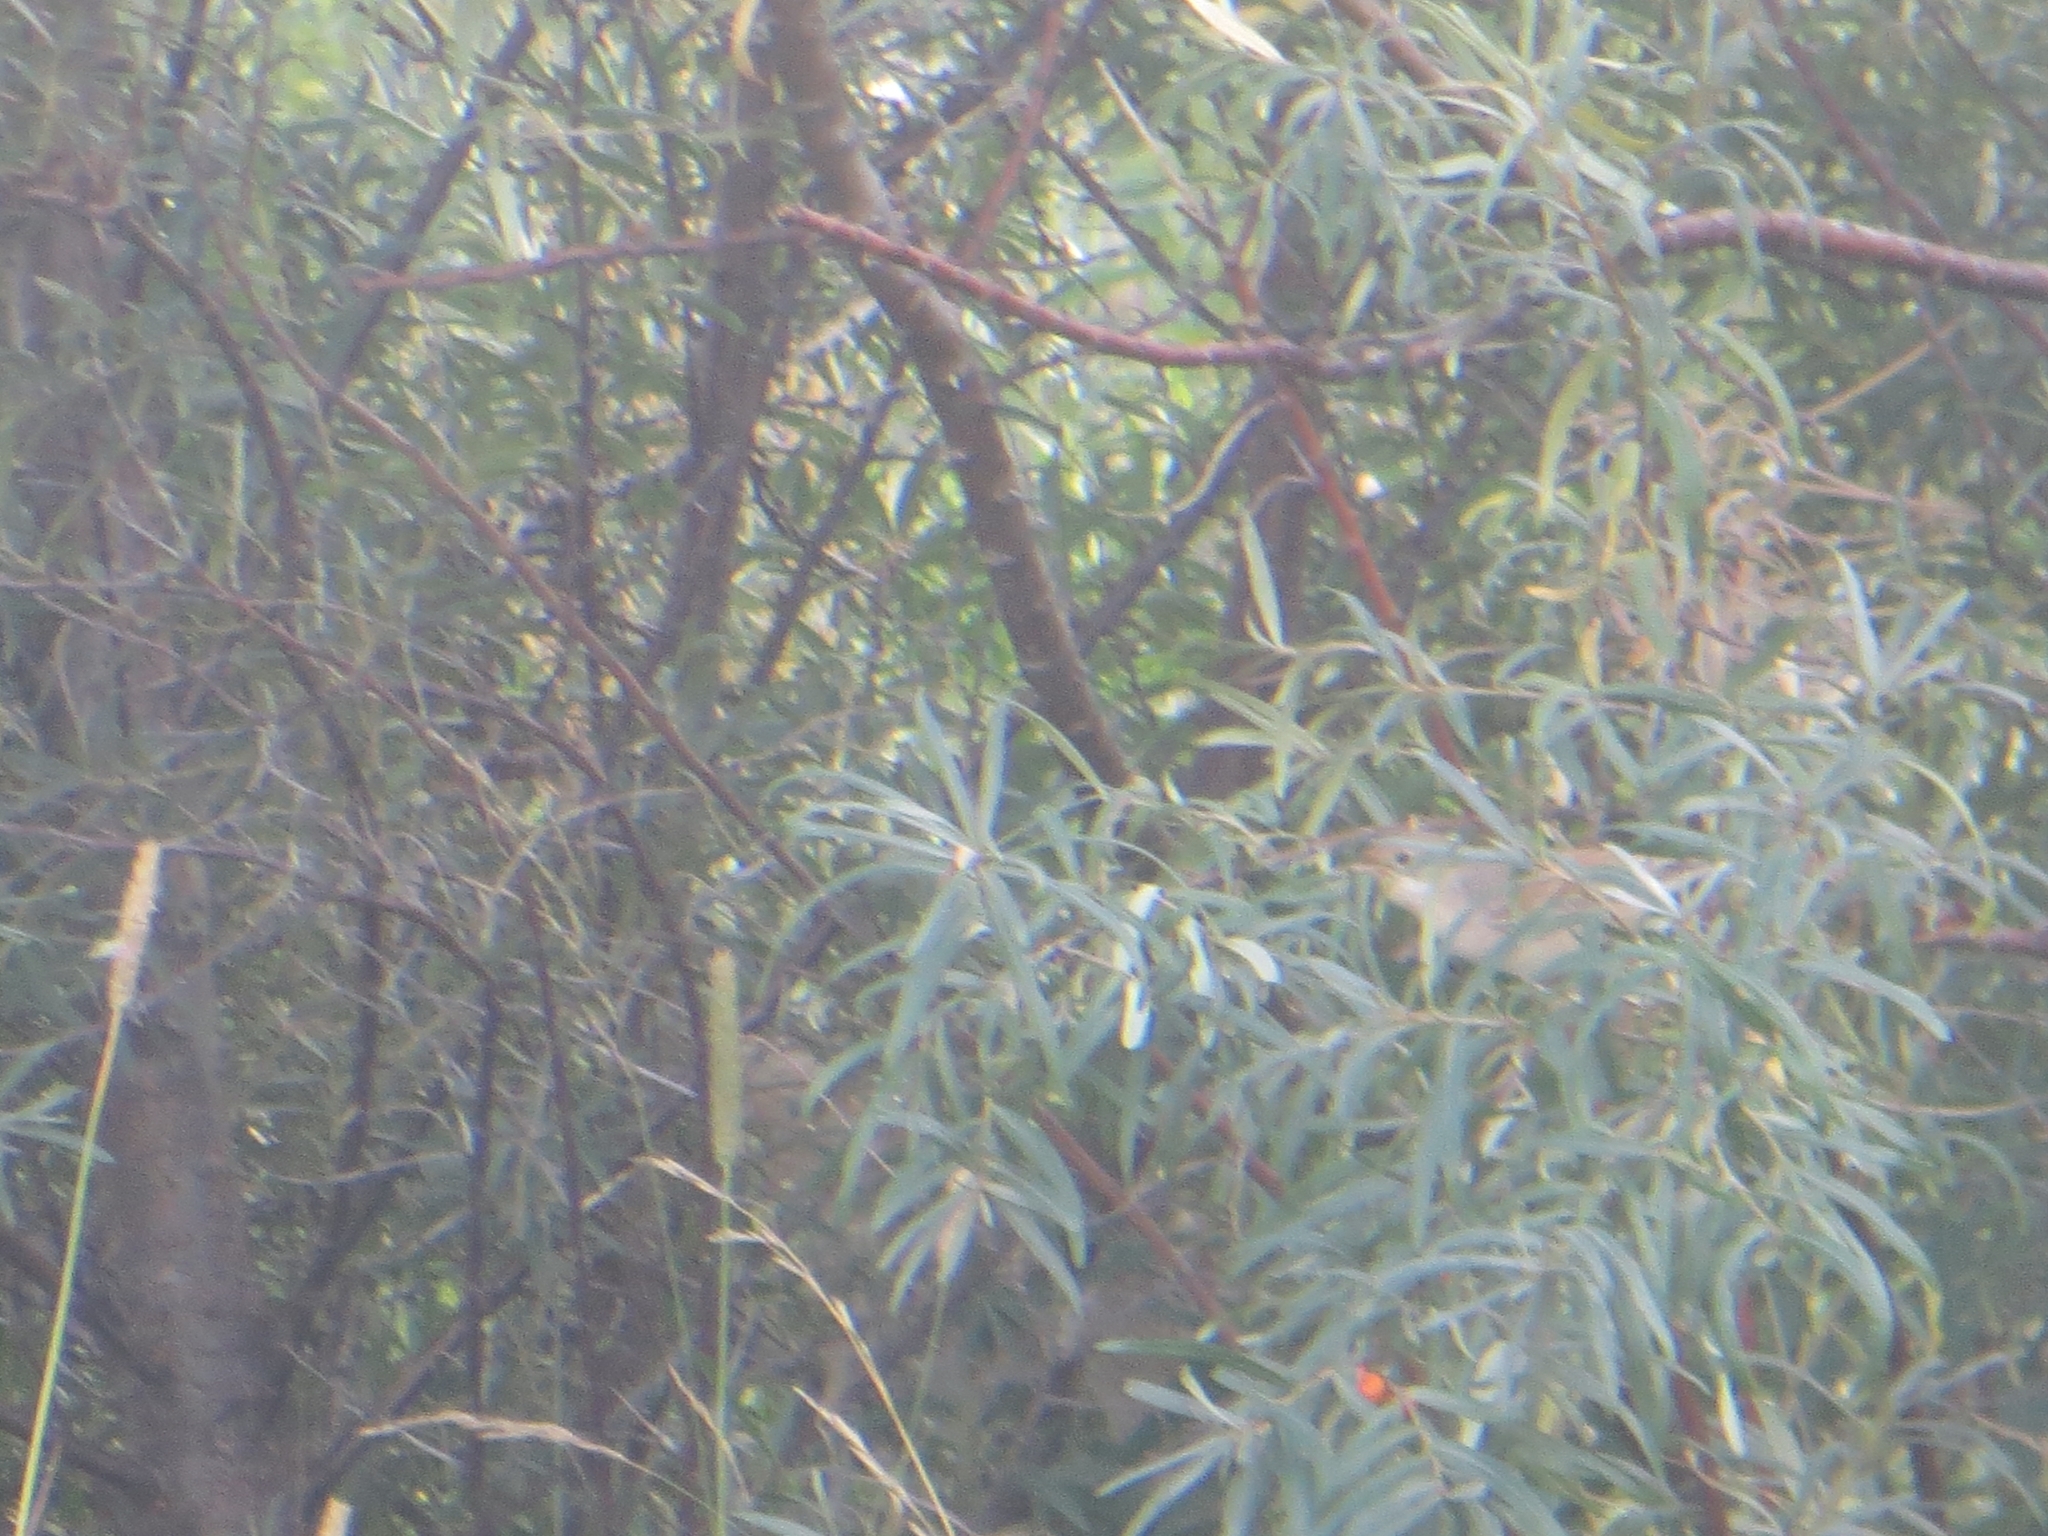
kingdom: Animalia
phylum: Chordata
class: Aves
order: Passeriformes
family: Sylviidae
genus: Sylvia
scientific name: Sylvia communis
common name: Common whitethroat
